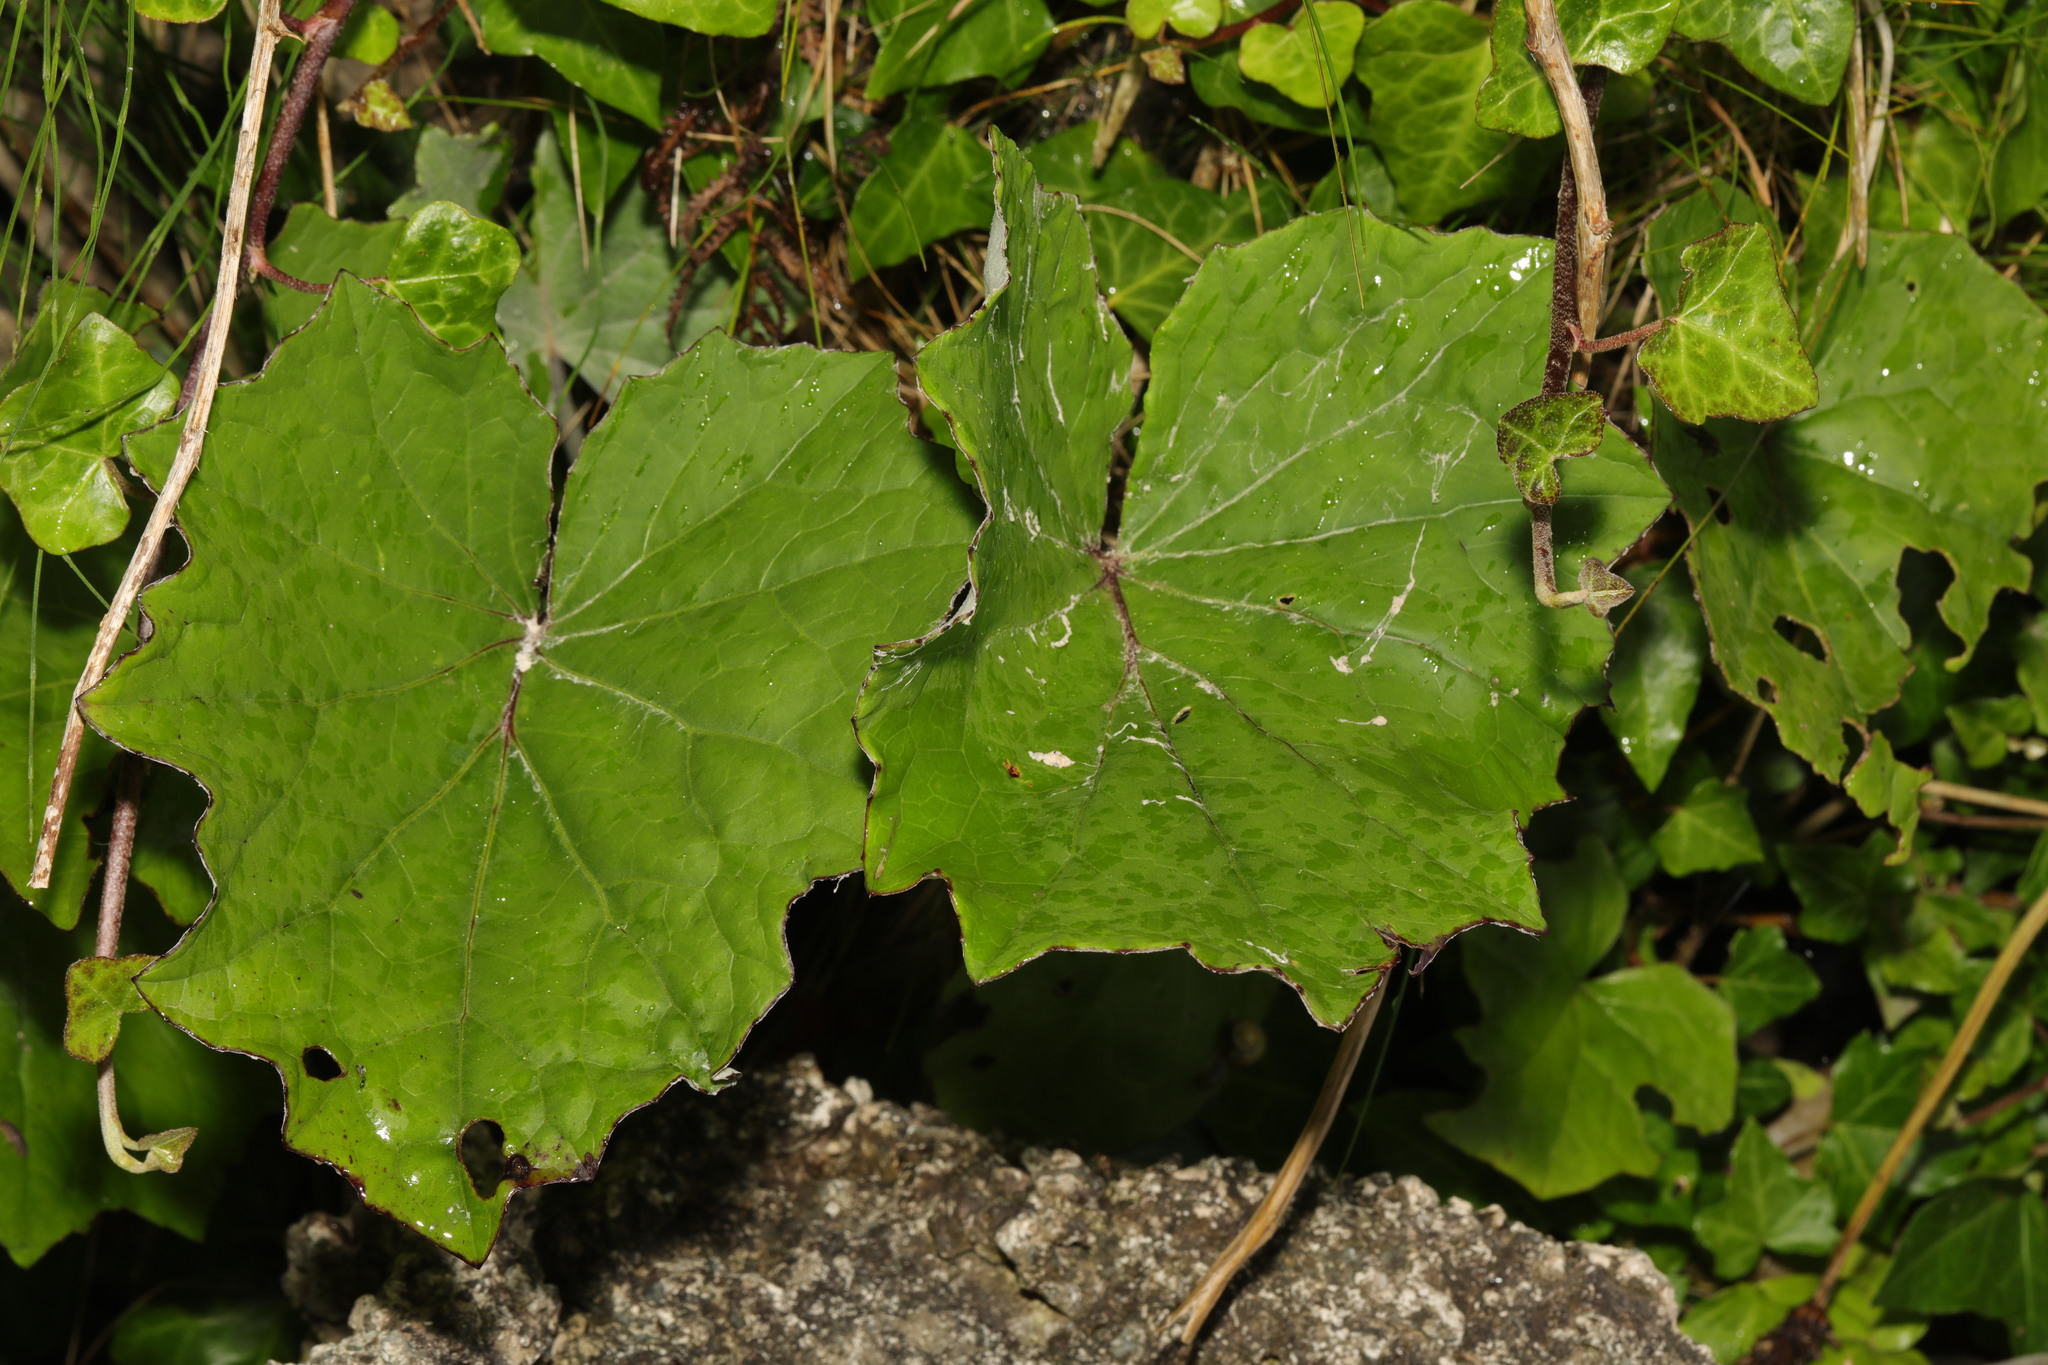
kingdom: Plantae
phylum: Tracheophyta
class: Magnoliopsida
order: Asterales
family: Asteraceae
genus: Tussilago
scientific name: Tussilago farfara
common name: Coltsfoot
